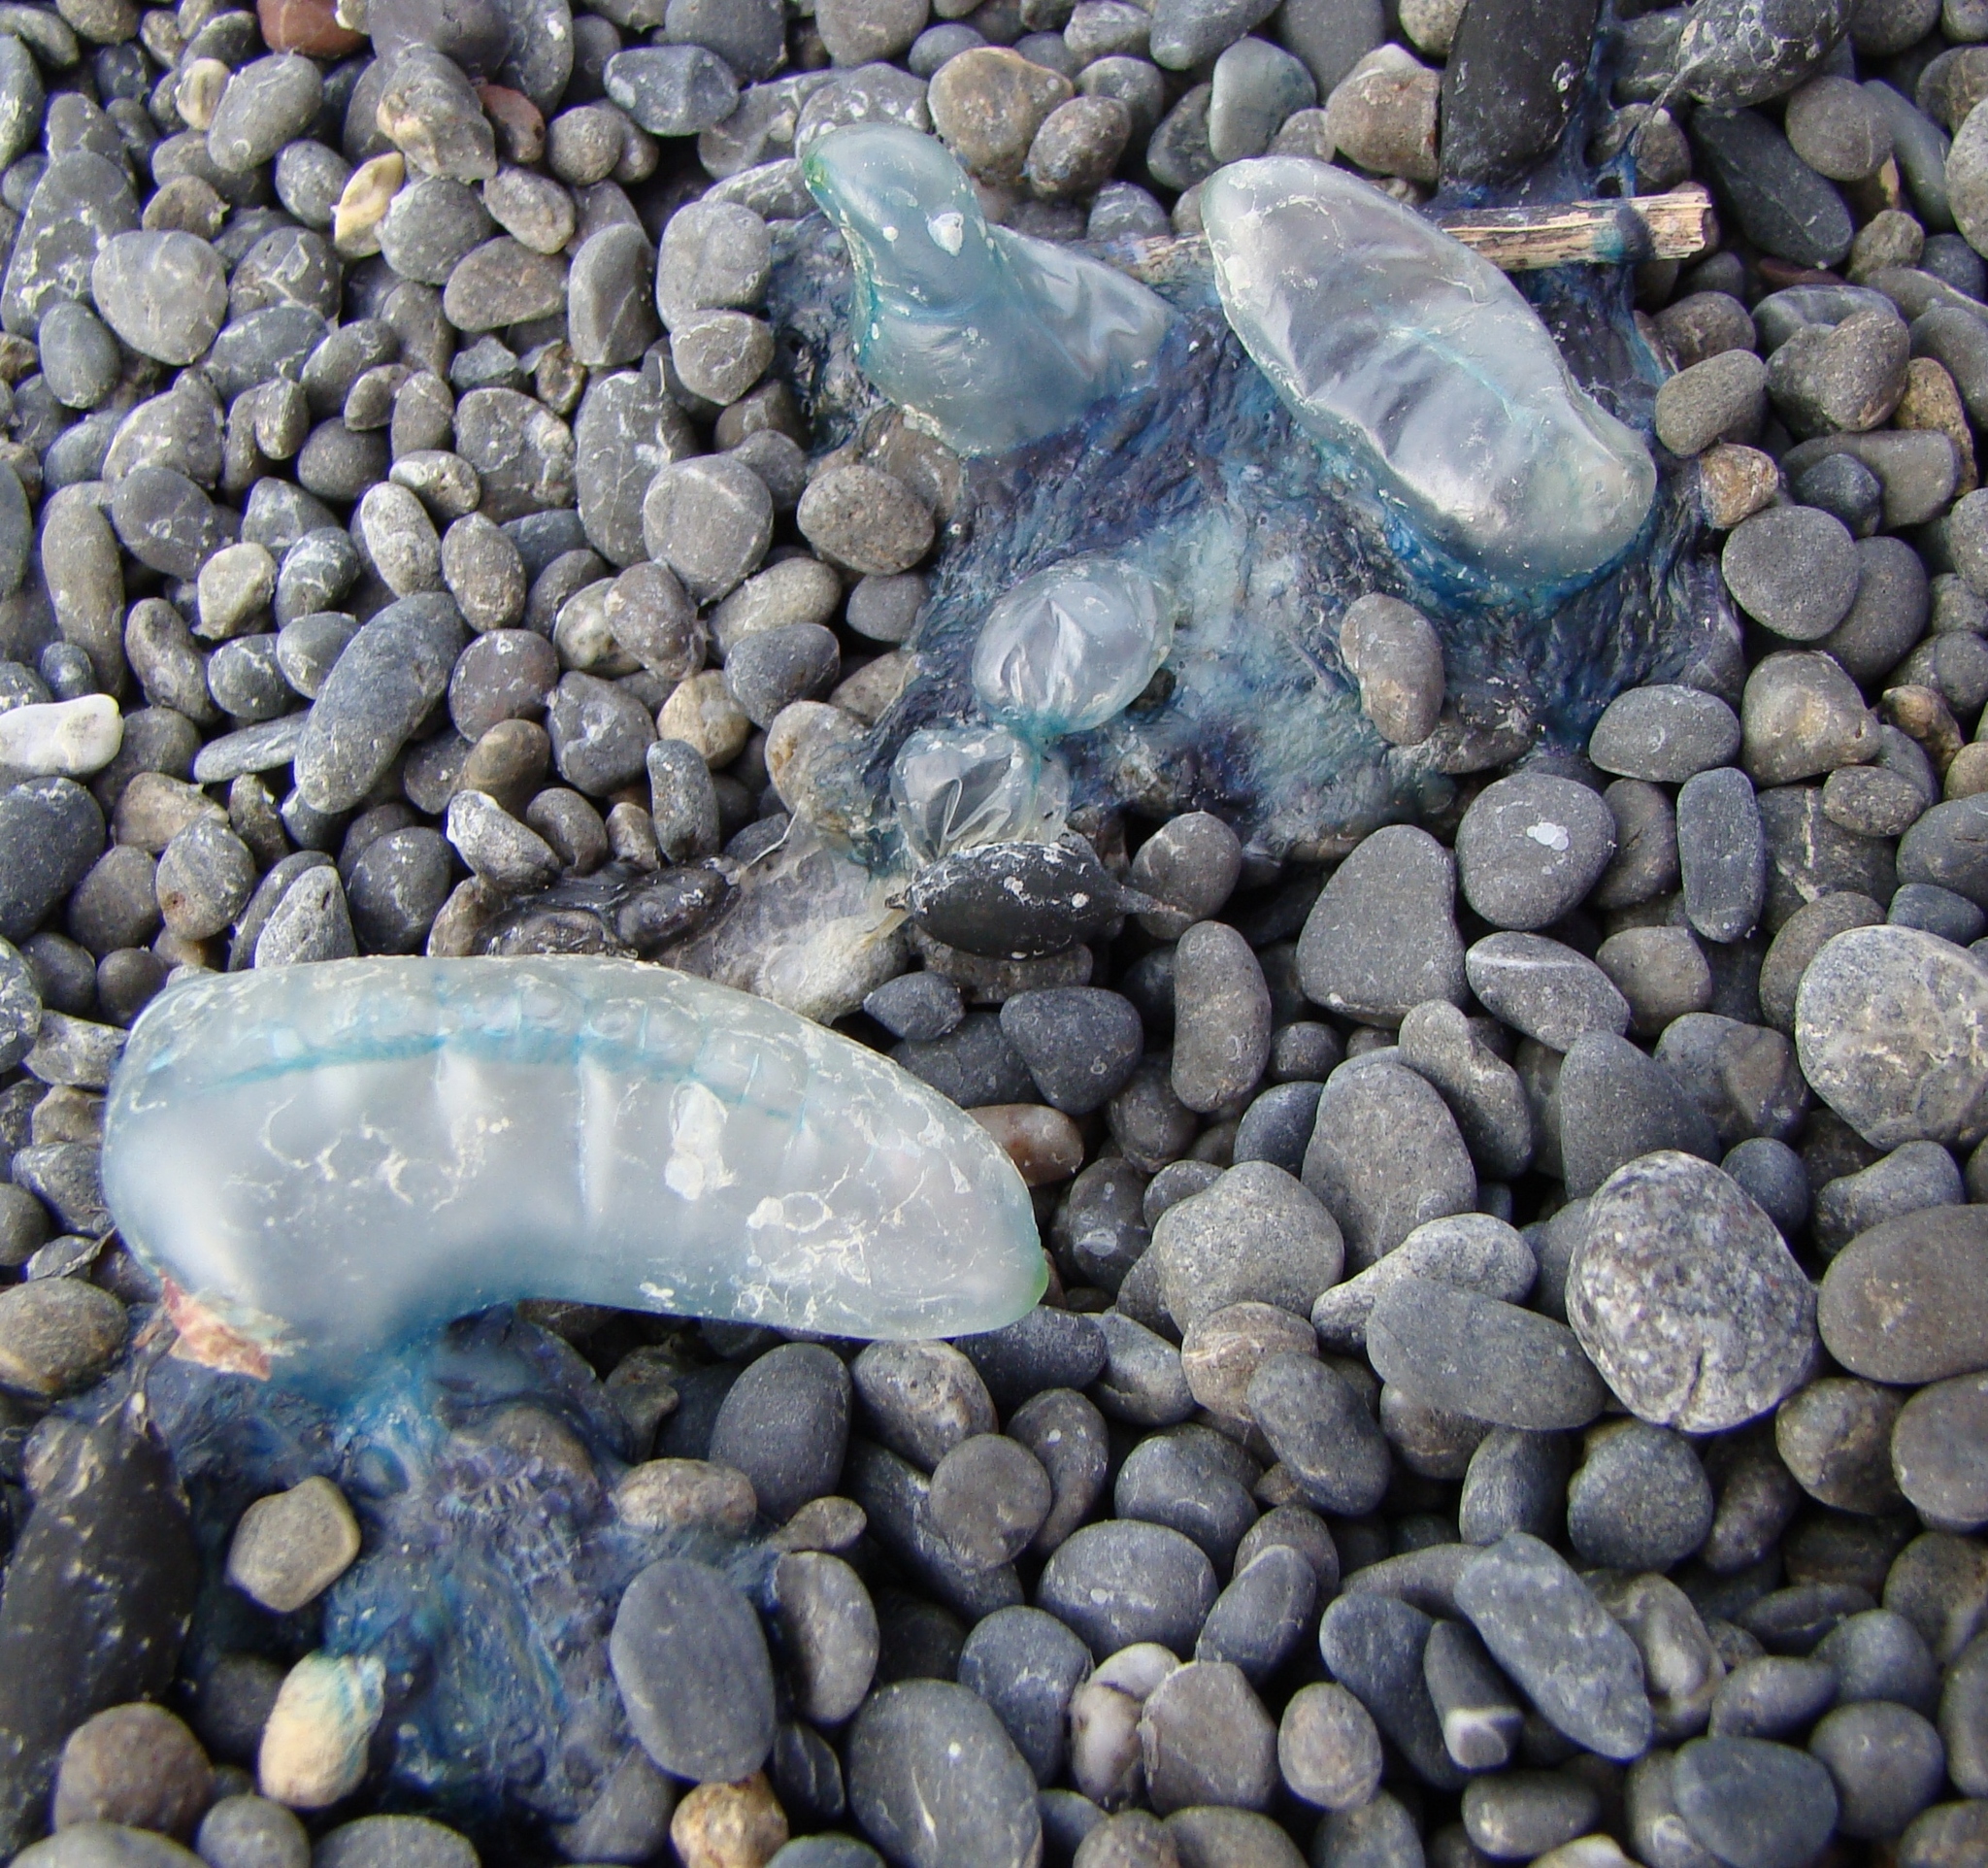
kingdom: Animalia
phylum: Cnidaria
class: Hydrozoa
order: Siphonophorae
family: Physaliidae
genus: Physalia
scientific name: Physalia physalis
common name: Portuguese man-of-war
